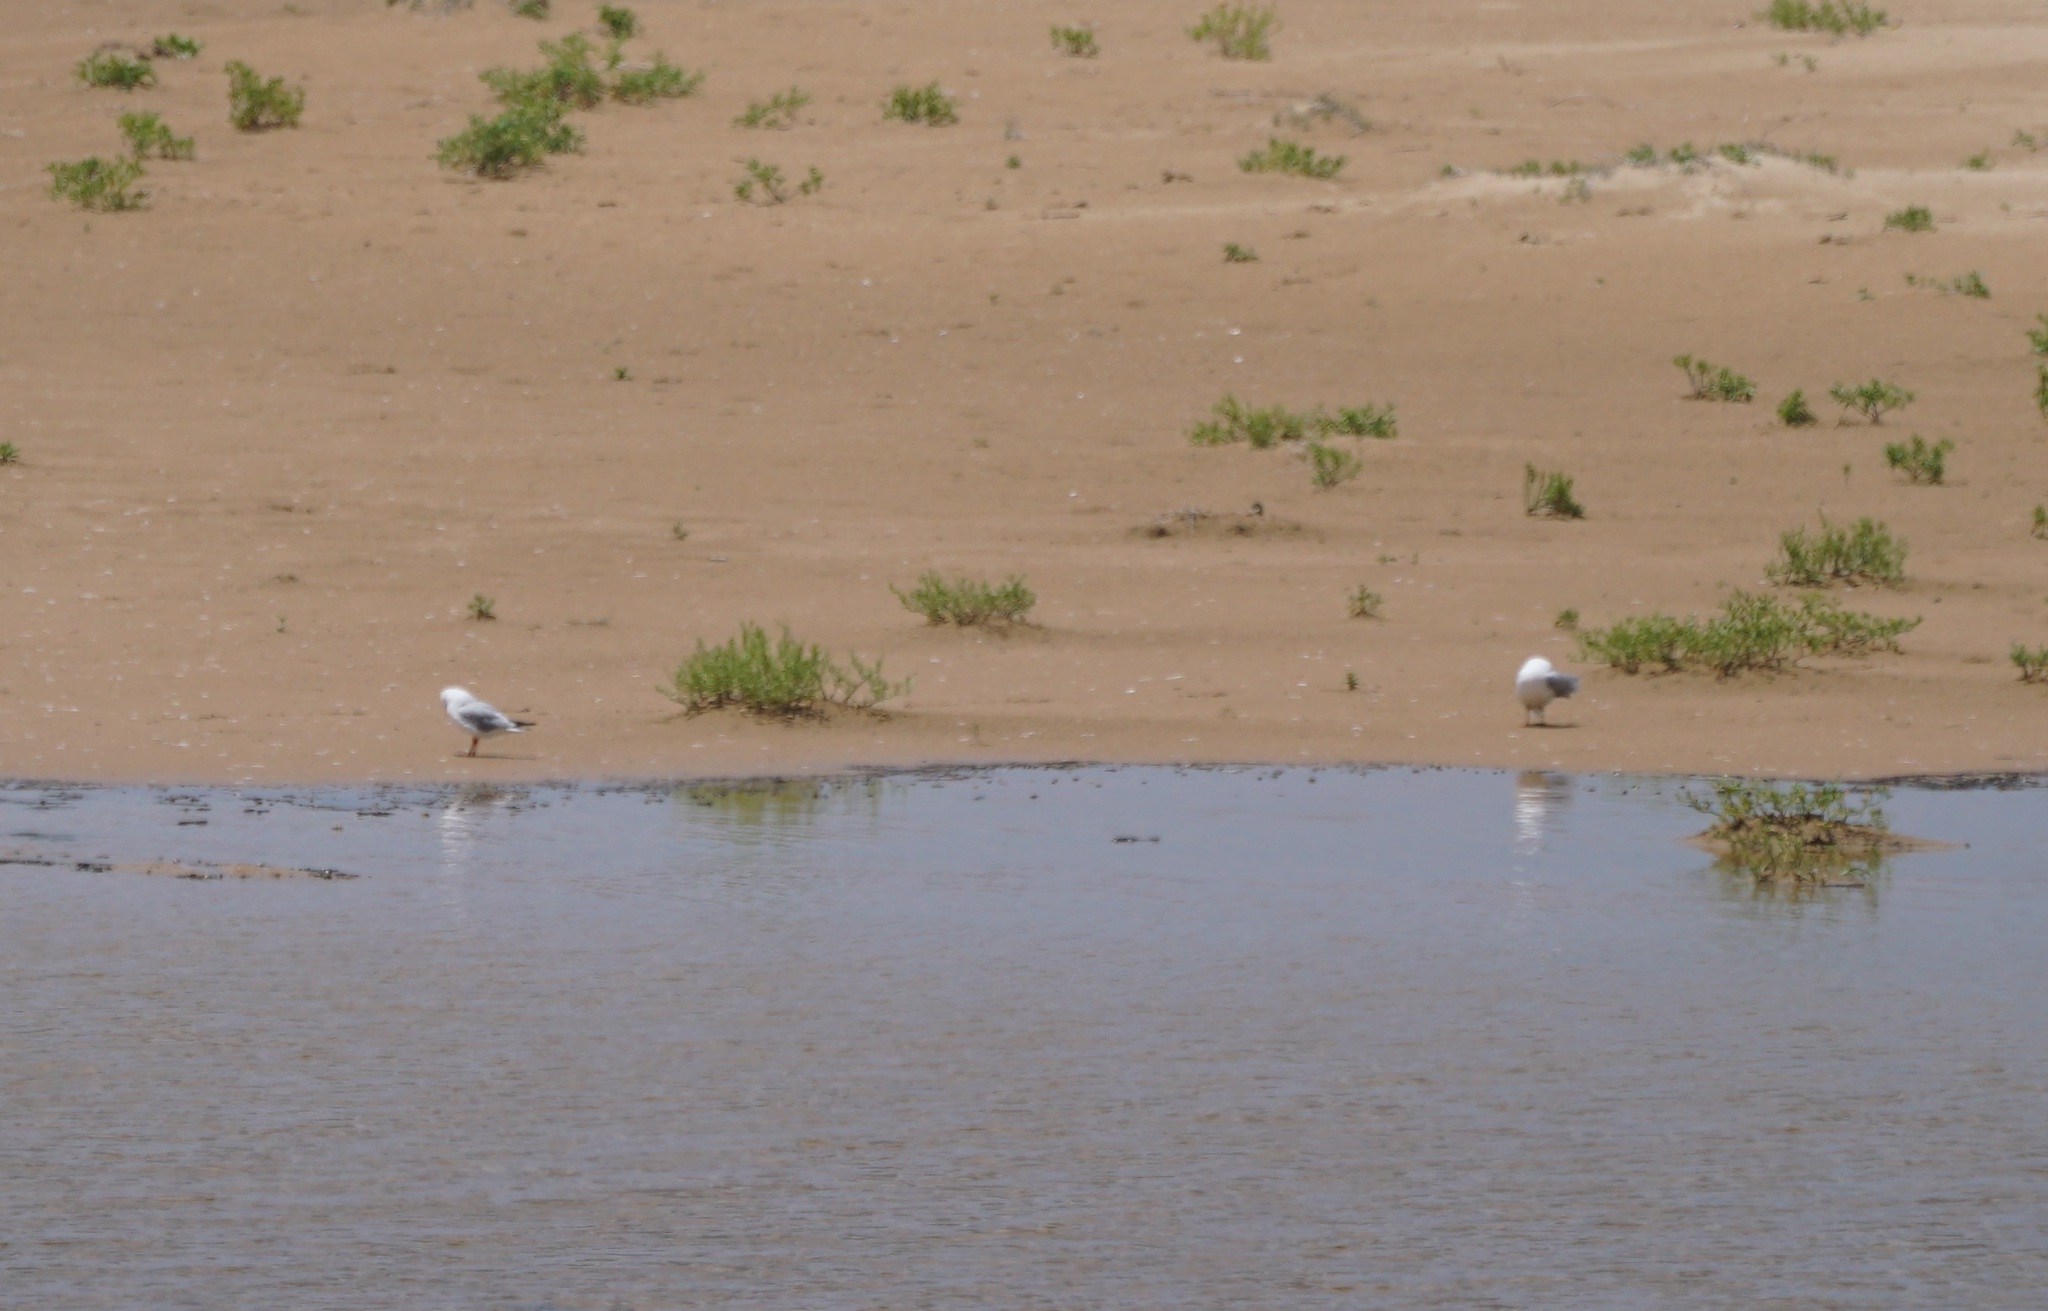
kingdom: Animalia
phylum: Chordata
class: Aves
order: Charadriiformes
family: Laridae
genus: Chroicocephalus
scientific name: Chroicocephalus novaehollandiae
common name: Silver gull
